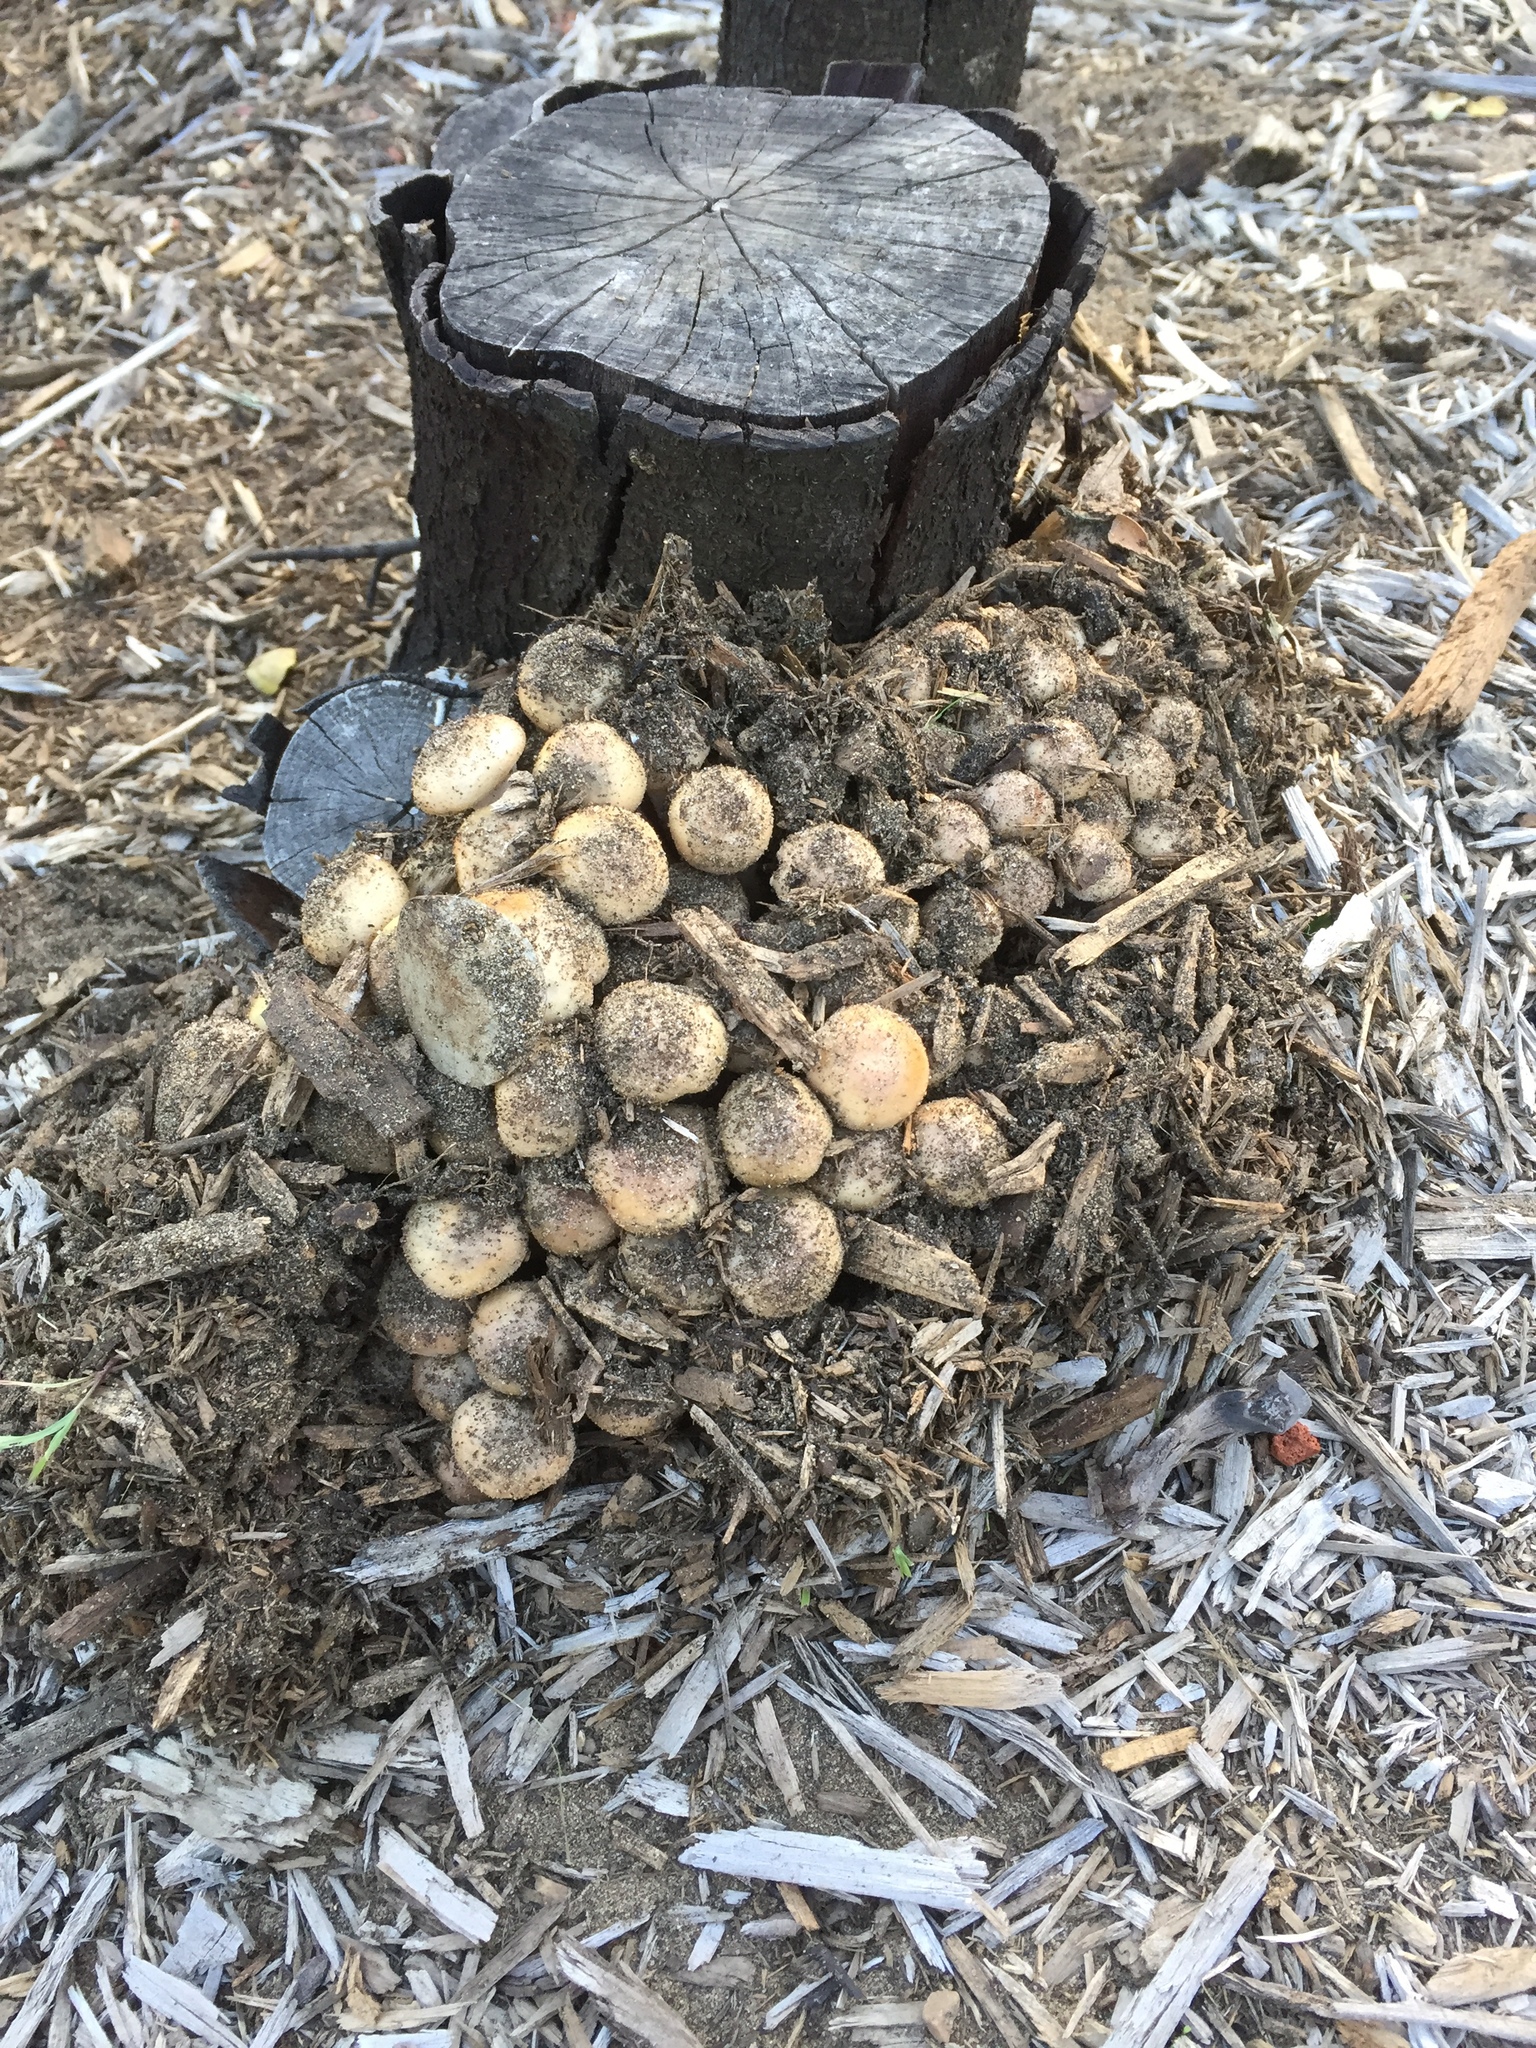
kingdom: Fungi
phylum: Basidiomycota
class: Agaricomycetes
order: Agaricales
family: Physalacriaceae
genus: Armillaria
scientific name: Armillaria mellea
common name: Honey fungus
